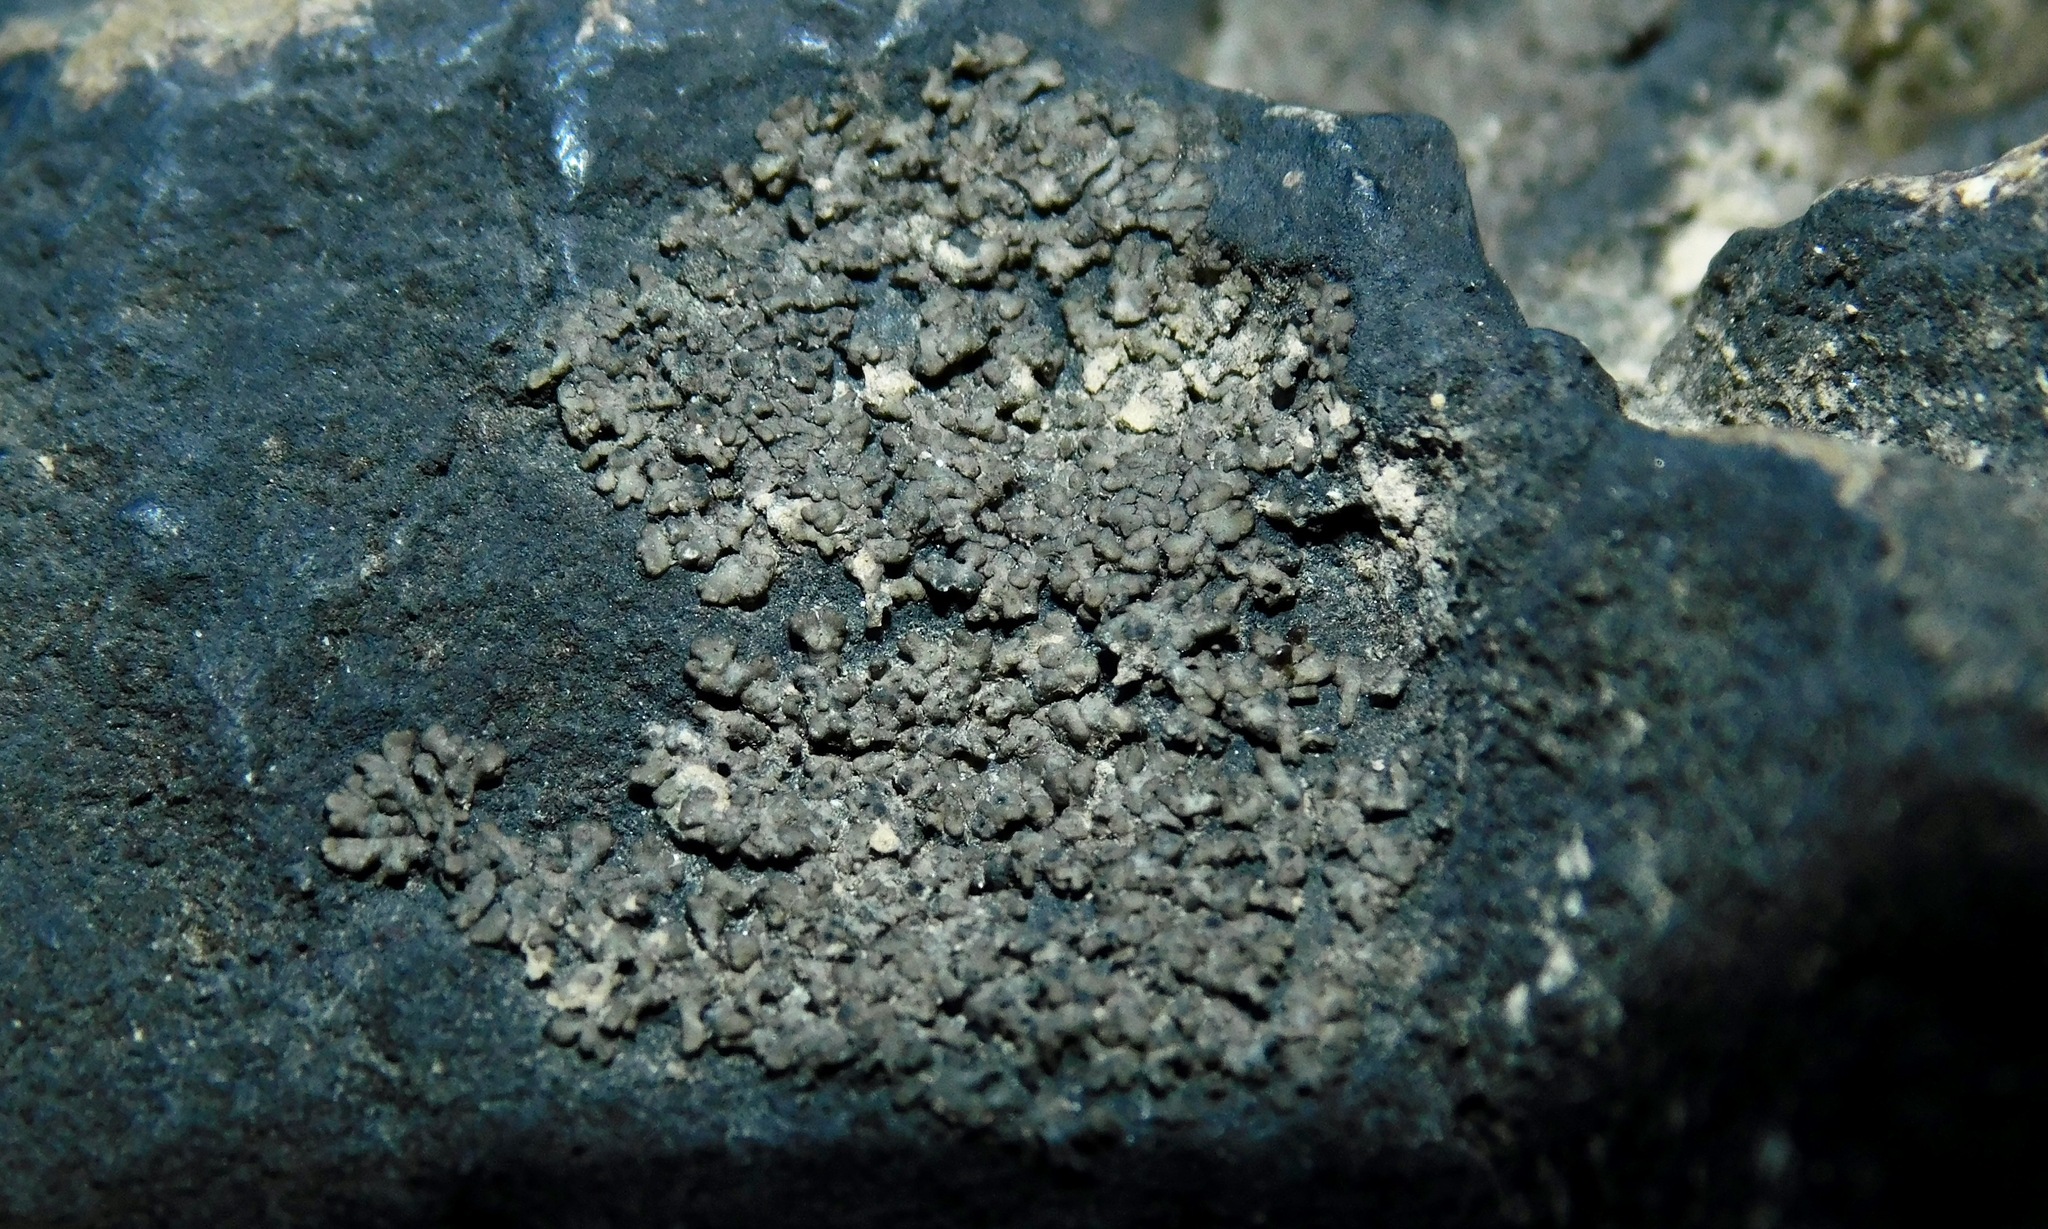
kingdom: Fungi
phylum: Ascomycota
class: Eurotiomycetes
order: Verrucariales
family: Verrucariaceae
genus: Endocarpon
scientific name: Endocarpon pallidulum
